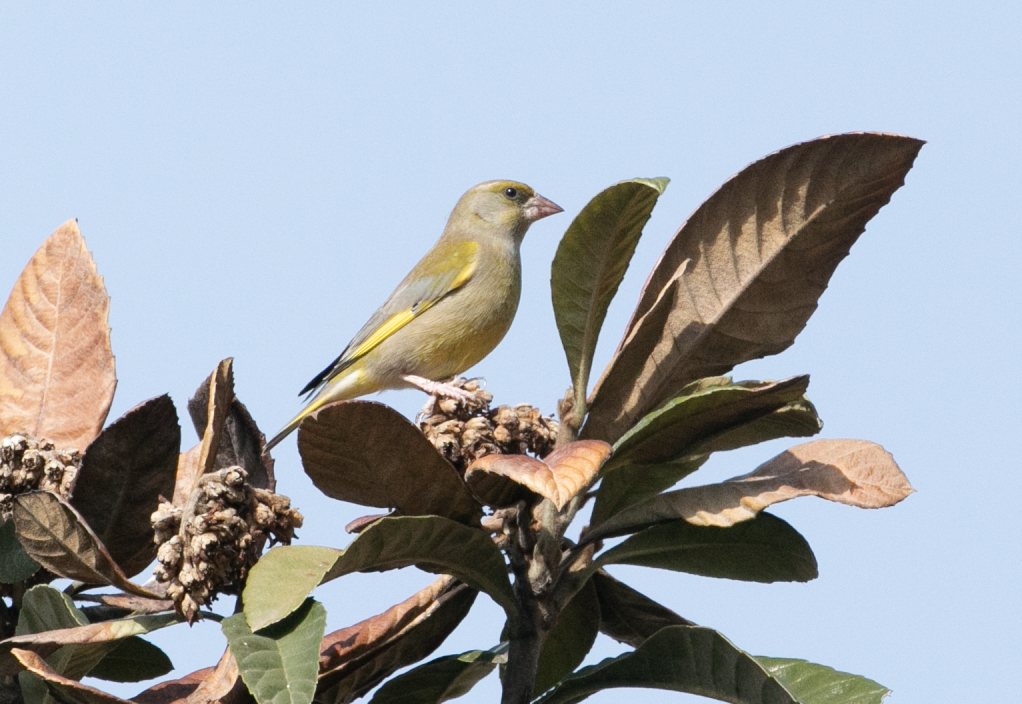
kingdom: Plantae
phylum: Tracheophyta
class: Liliopsida
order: Poales
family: Poaceae
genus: Chloris
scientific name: Chloris chloris
